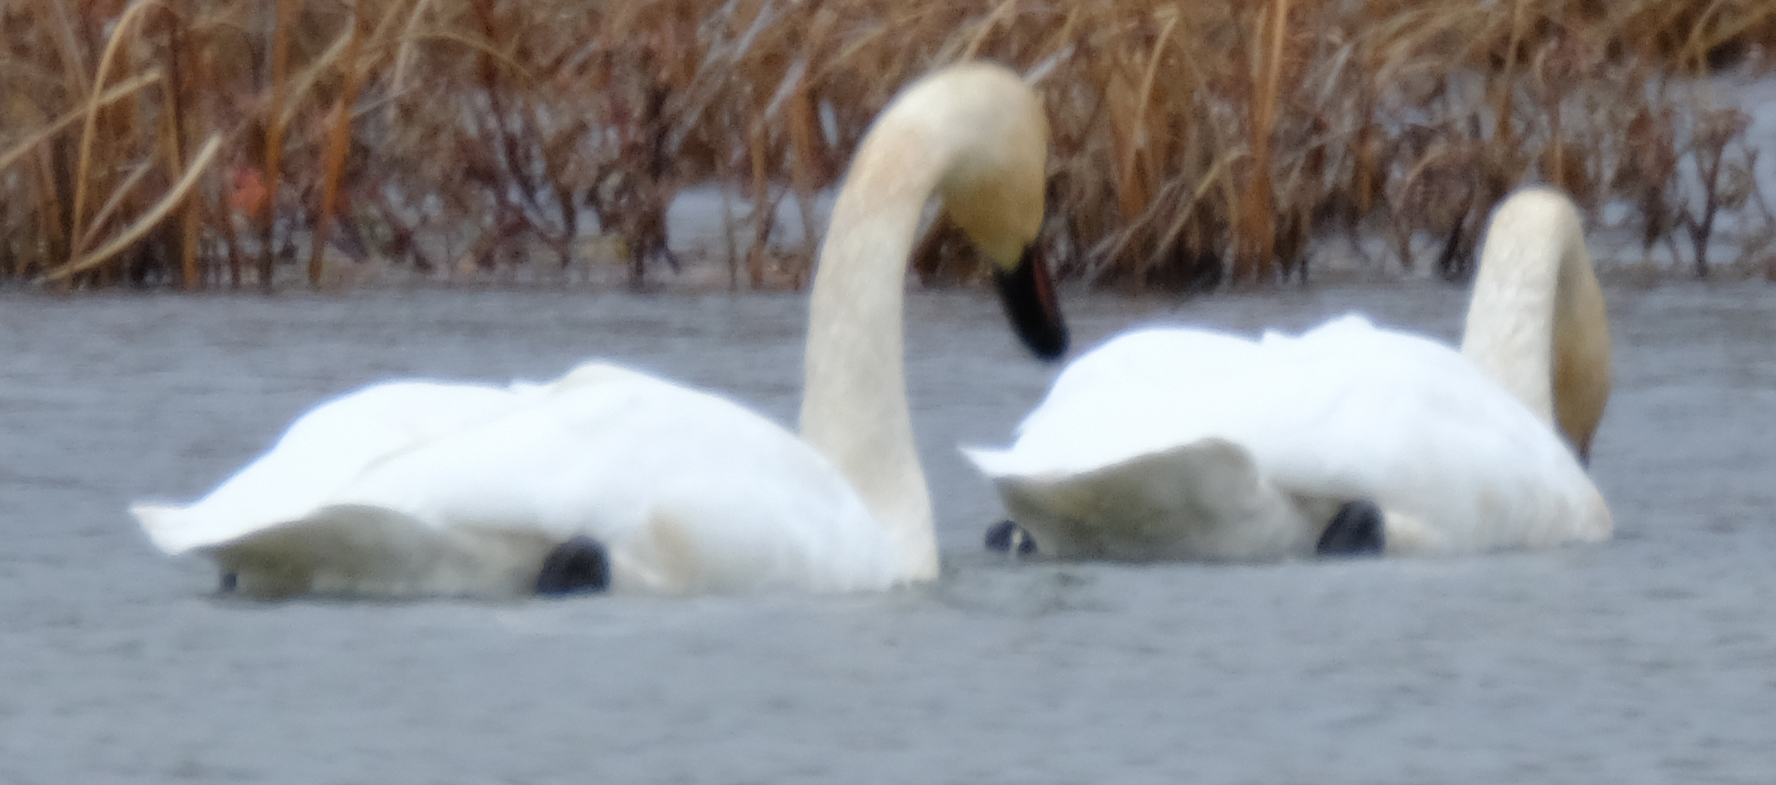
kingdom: Animalia
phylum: Chordata
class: Aves
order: Anseriformes
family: Anatidae
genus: Cygnus
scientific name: Cygnus buccinator
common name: Trumpeter swan
